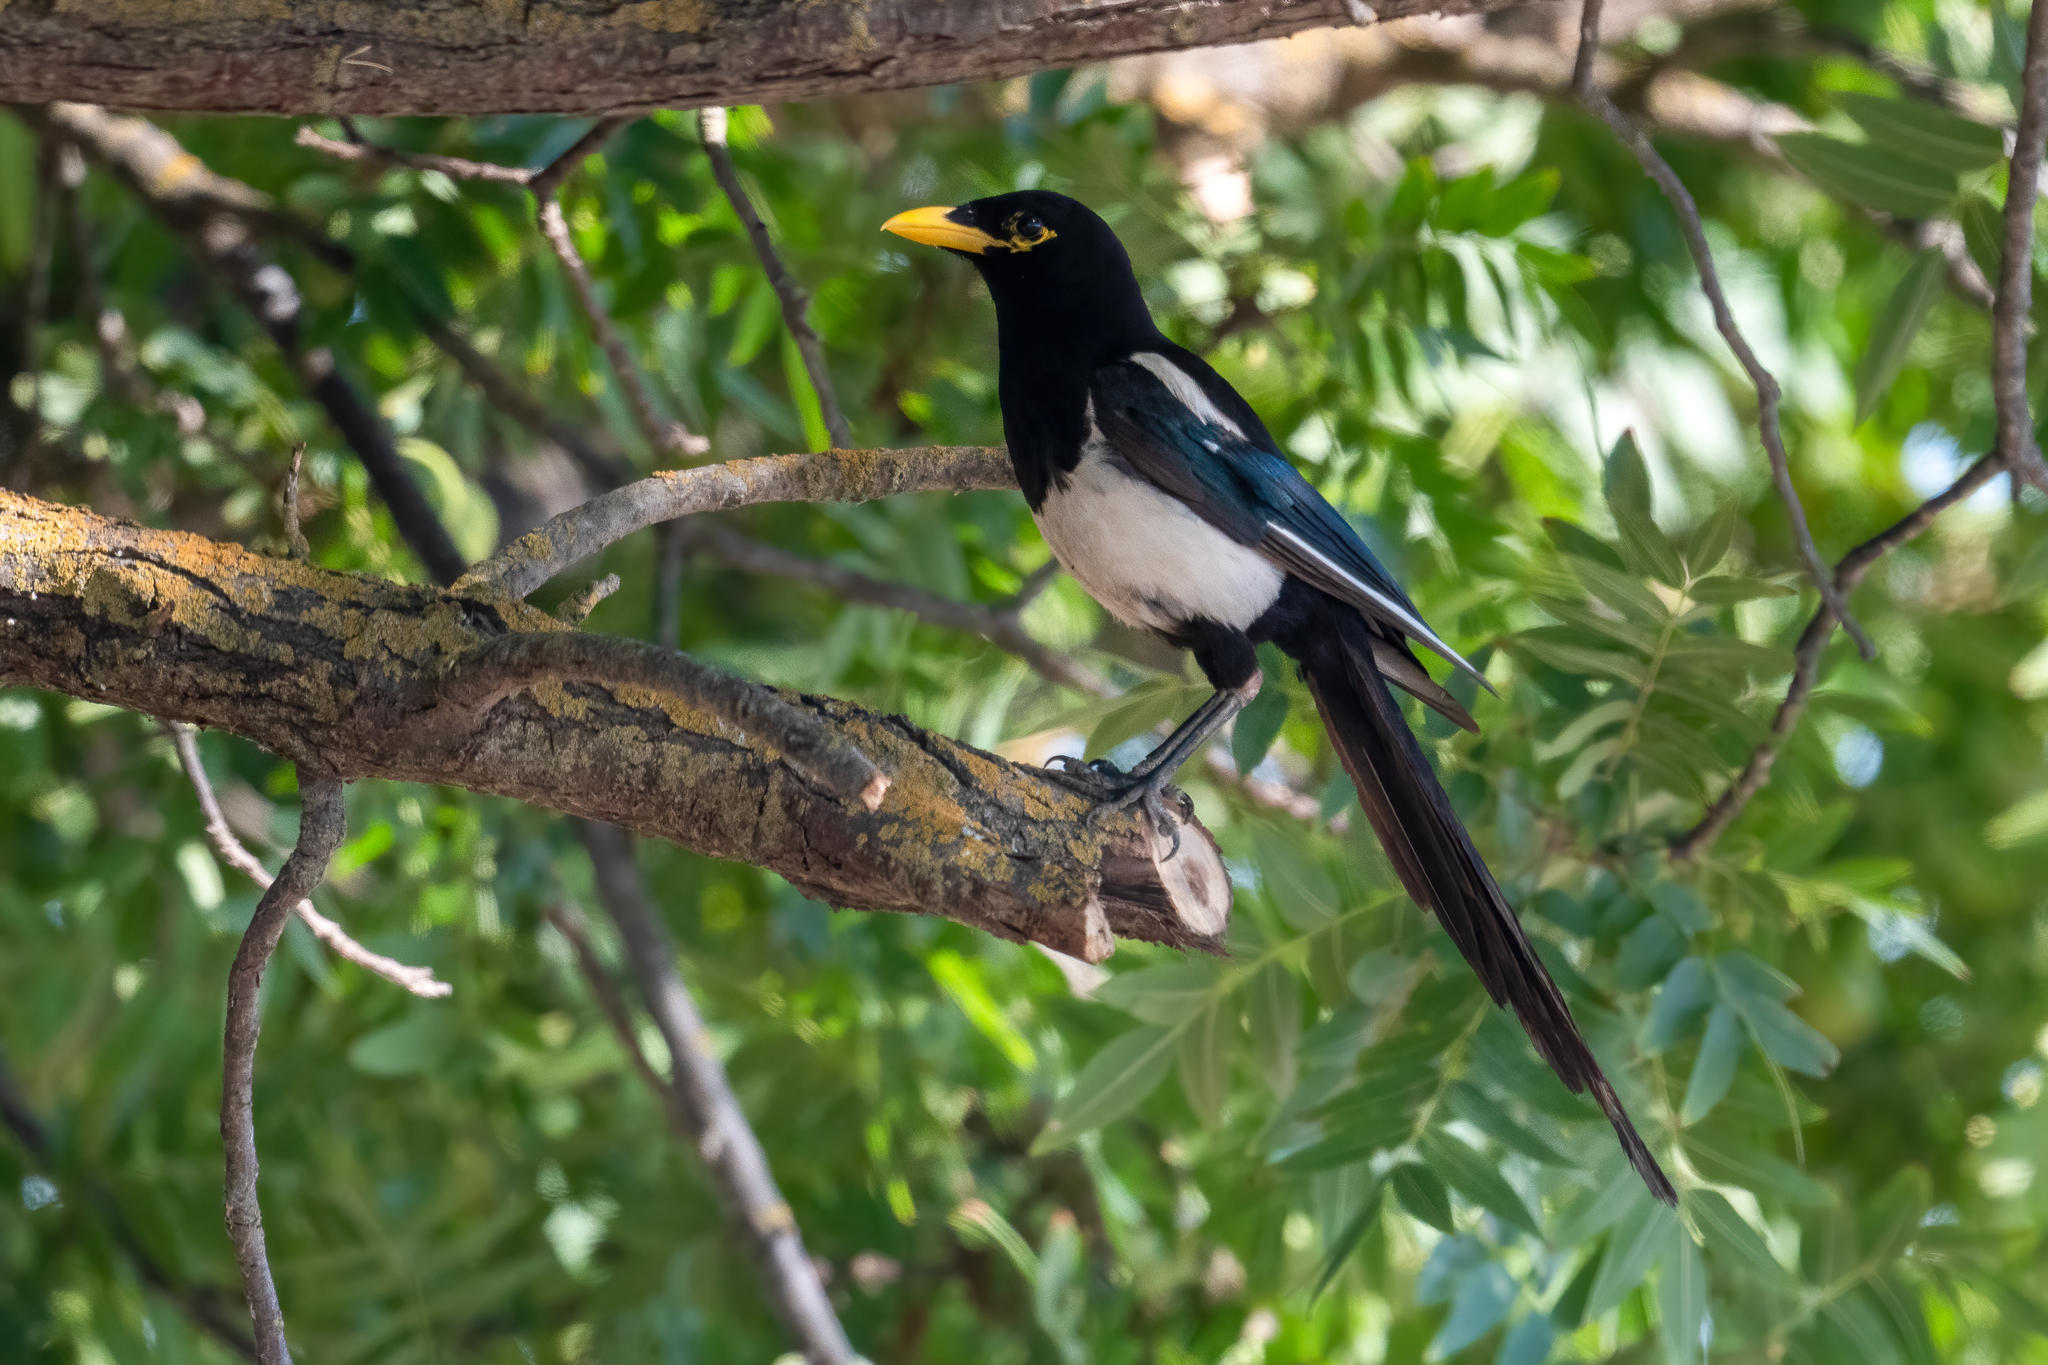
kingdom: Animalia
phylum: Chordata
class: Aves
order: Passeriformes
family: Corvidae
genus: Pica
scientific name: Pica nuttalli
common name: Yellow-billed magpie
